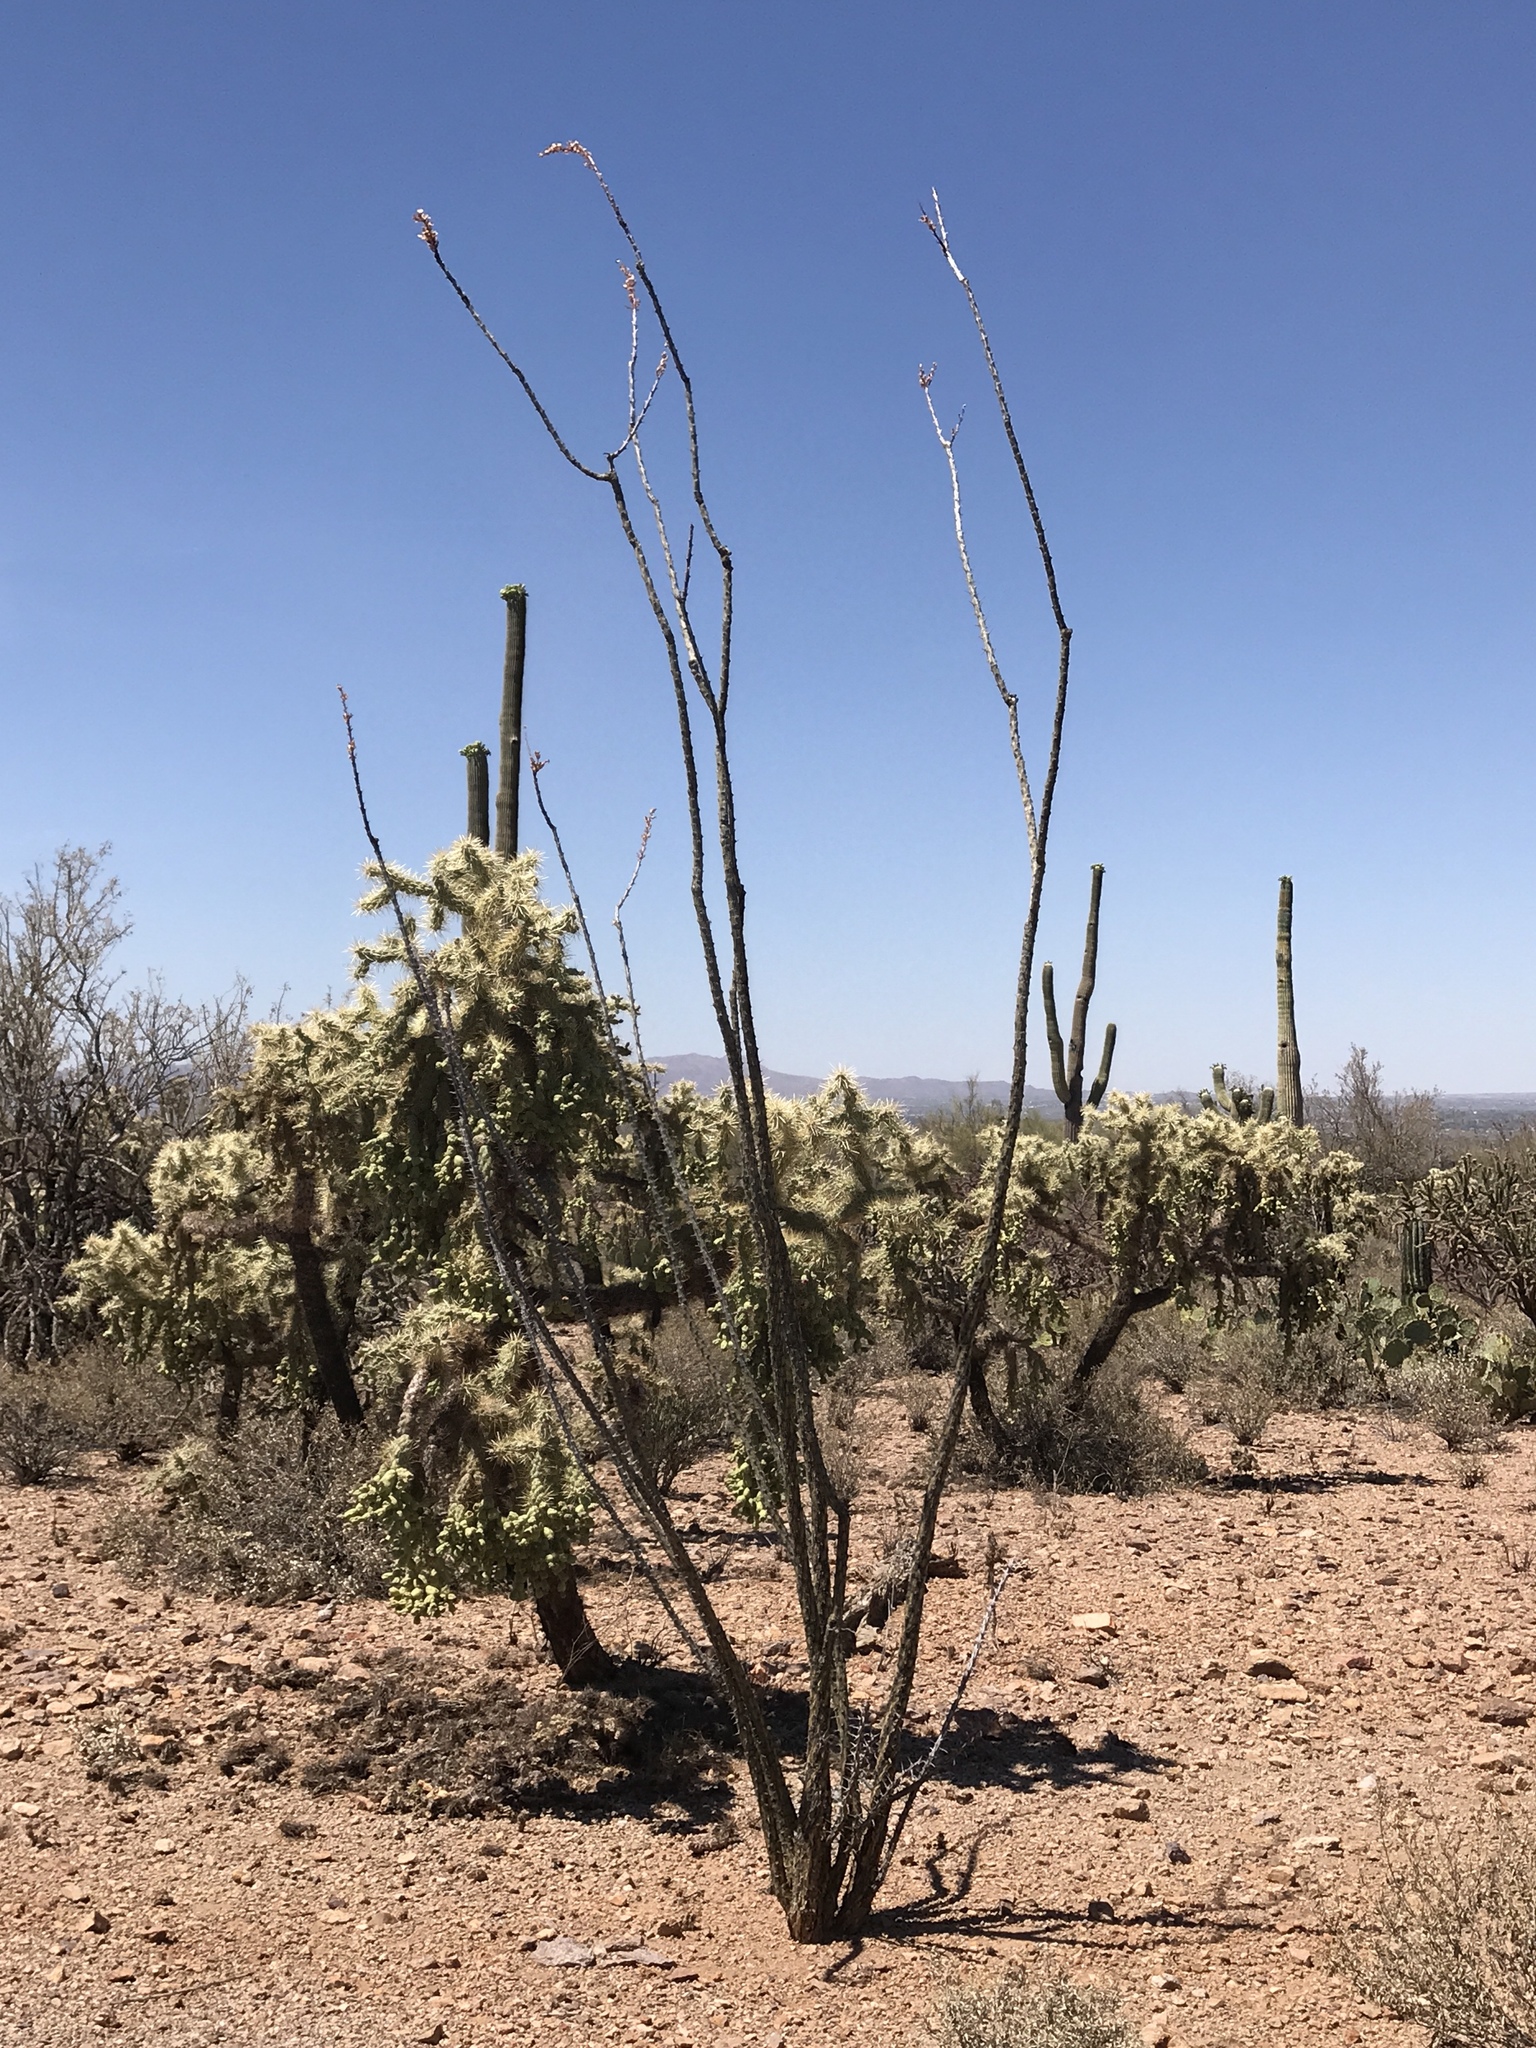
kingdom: Plantae
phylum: Tracheophyta
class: Magnoliopsida
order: Ericales
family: Fouquieriaceae
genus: Fouquieria
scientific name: Fouquieria splendens
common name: Vine-cactus
